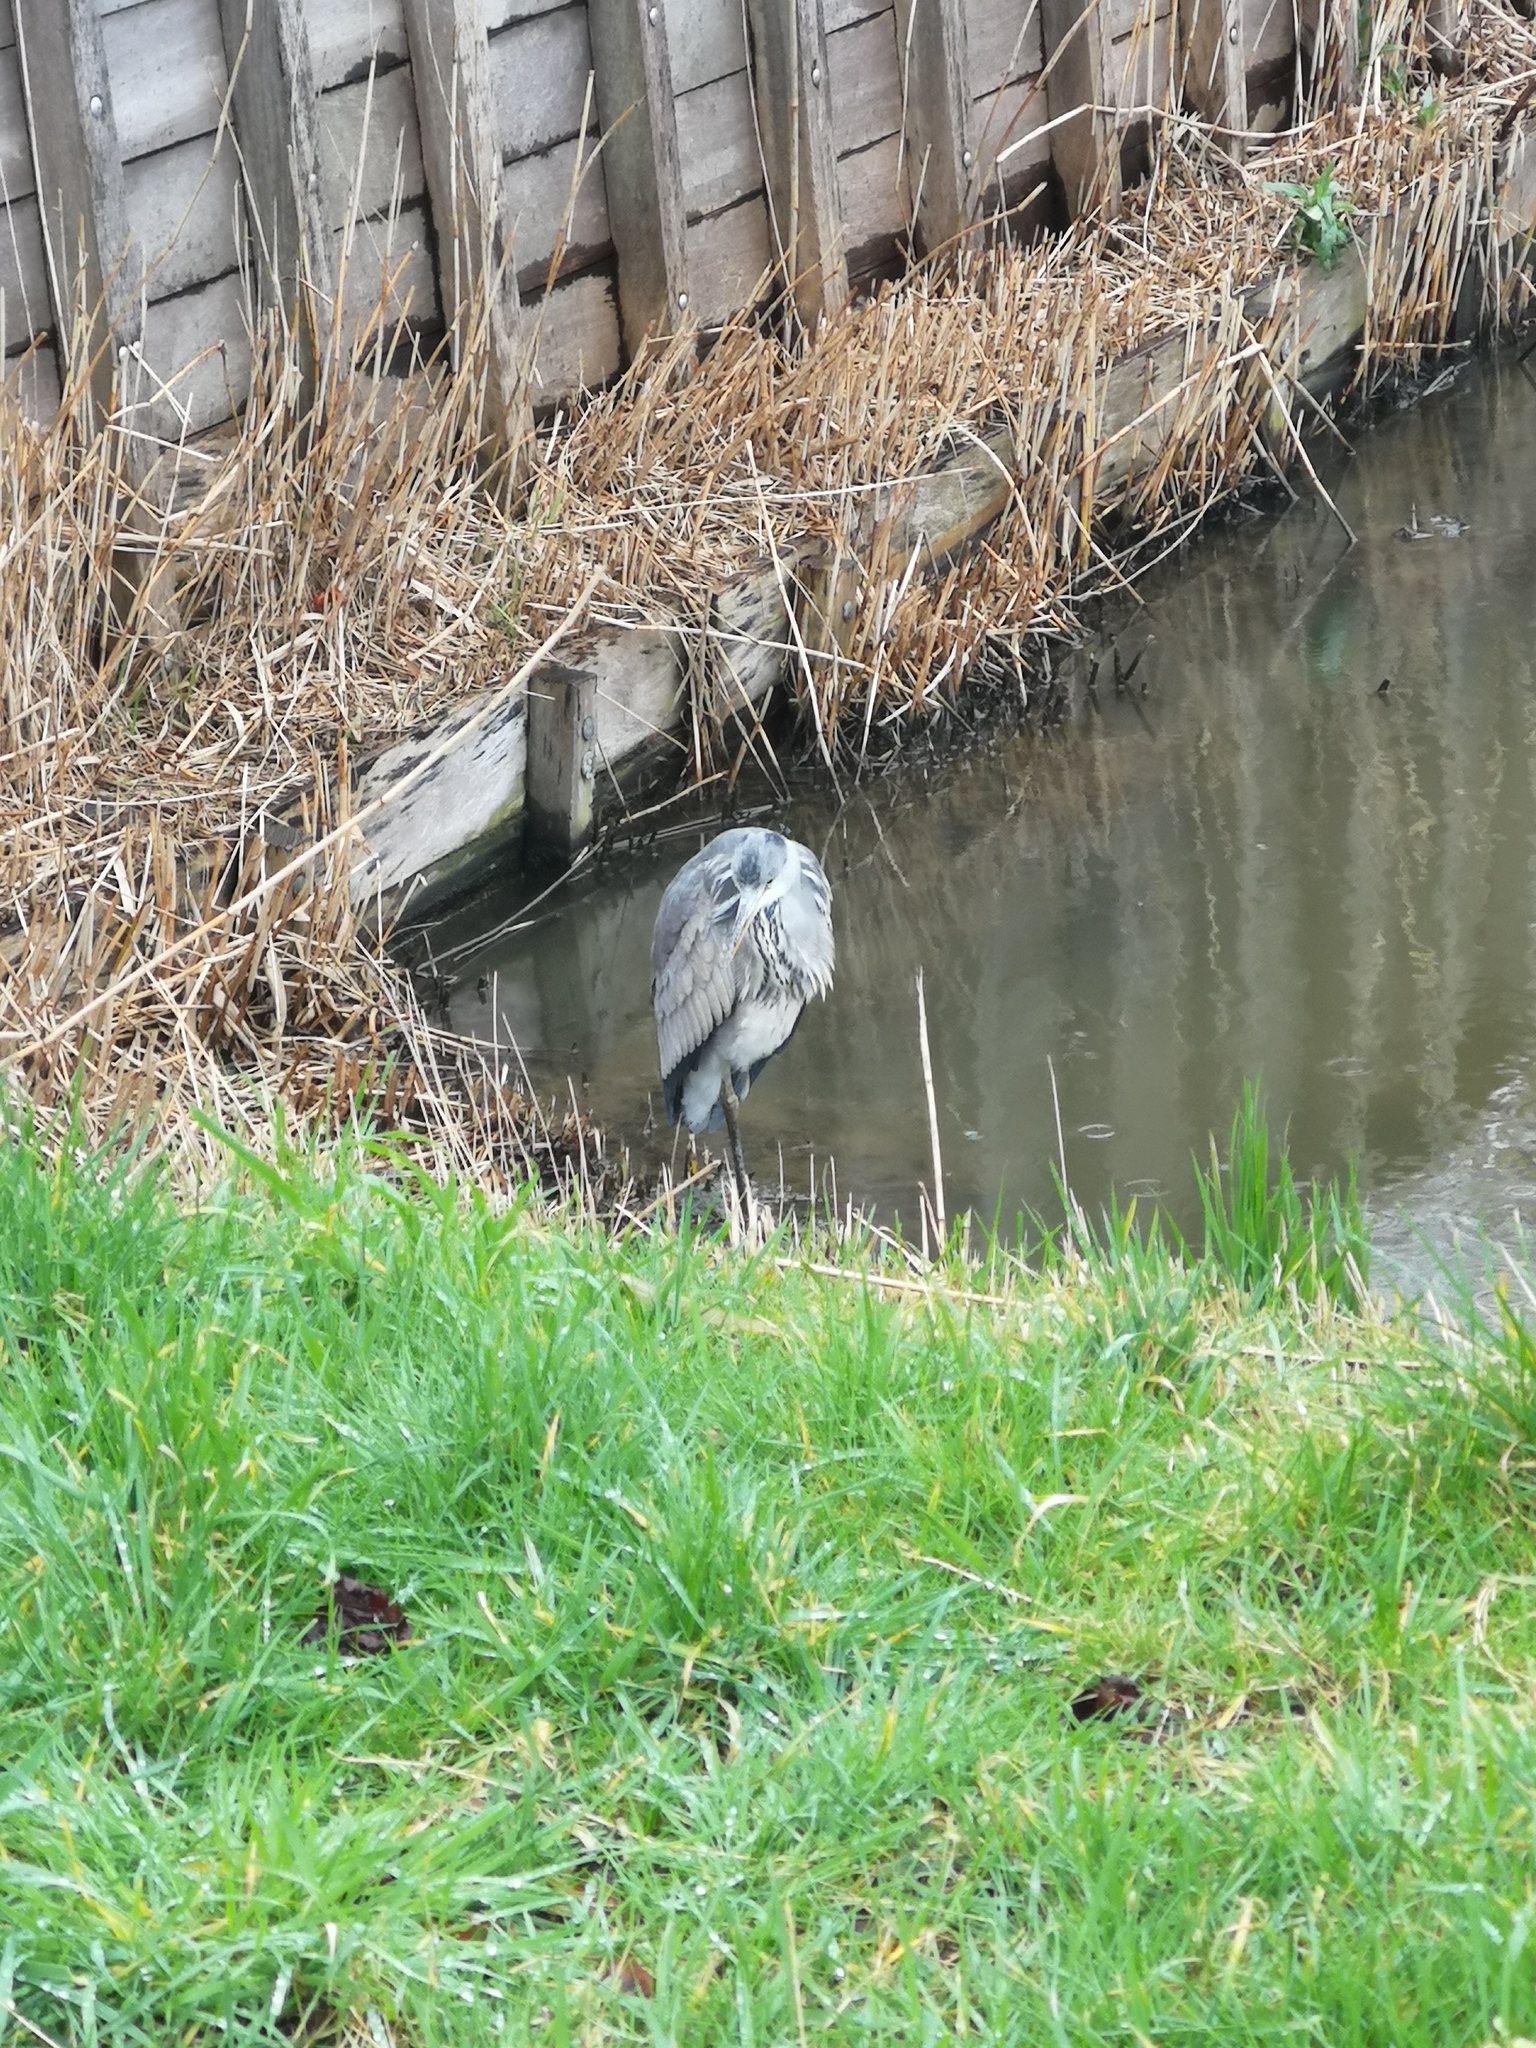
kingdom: Animalia
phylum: Chordata
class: Aves
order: Pelecaniformes
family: Ardeidae
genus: Ardea
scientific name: Ardea cinerea
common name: Grey heron
